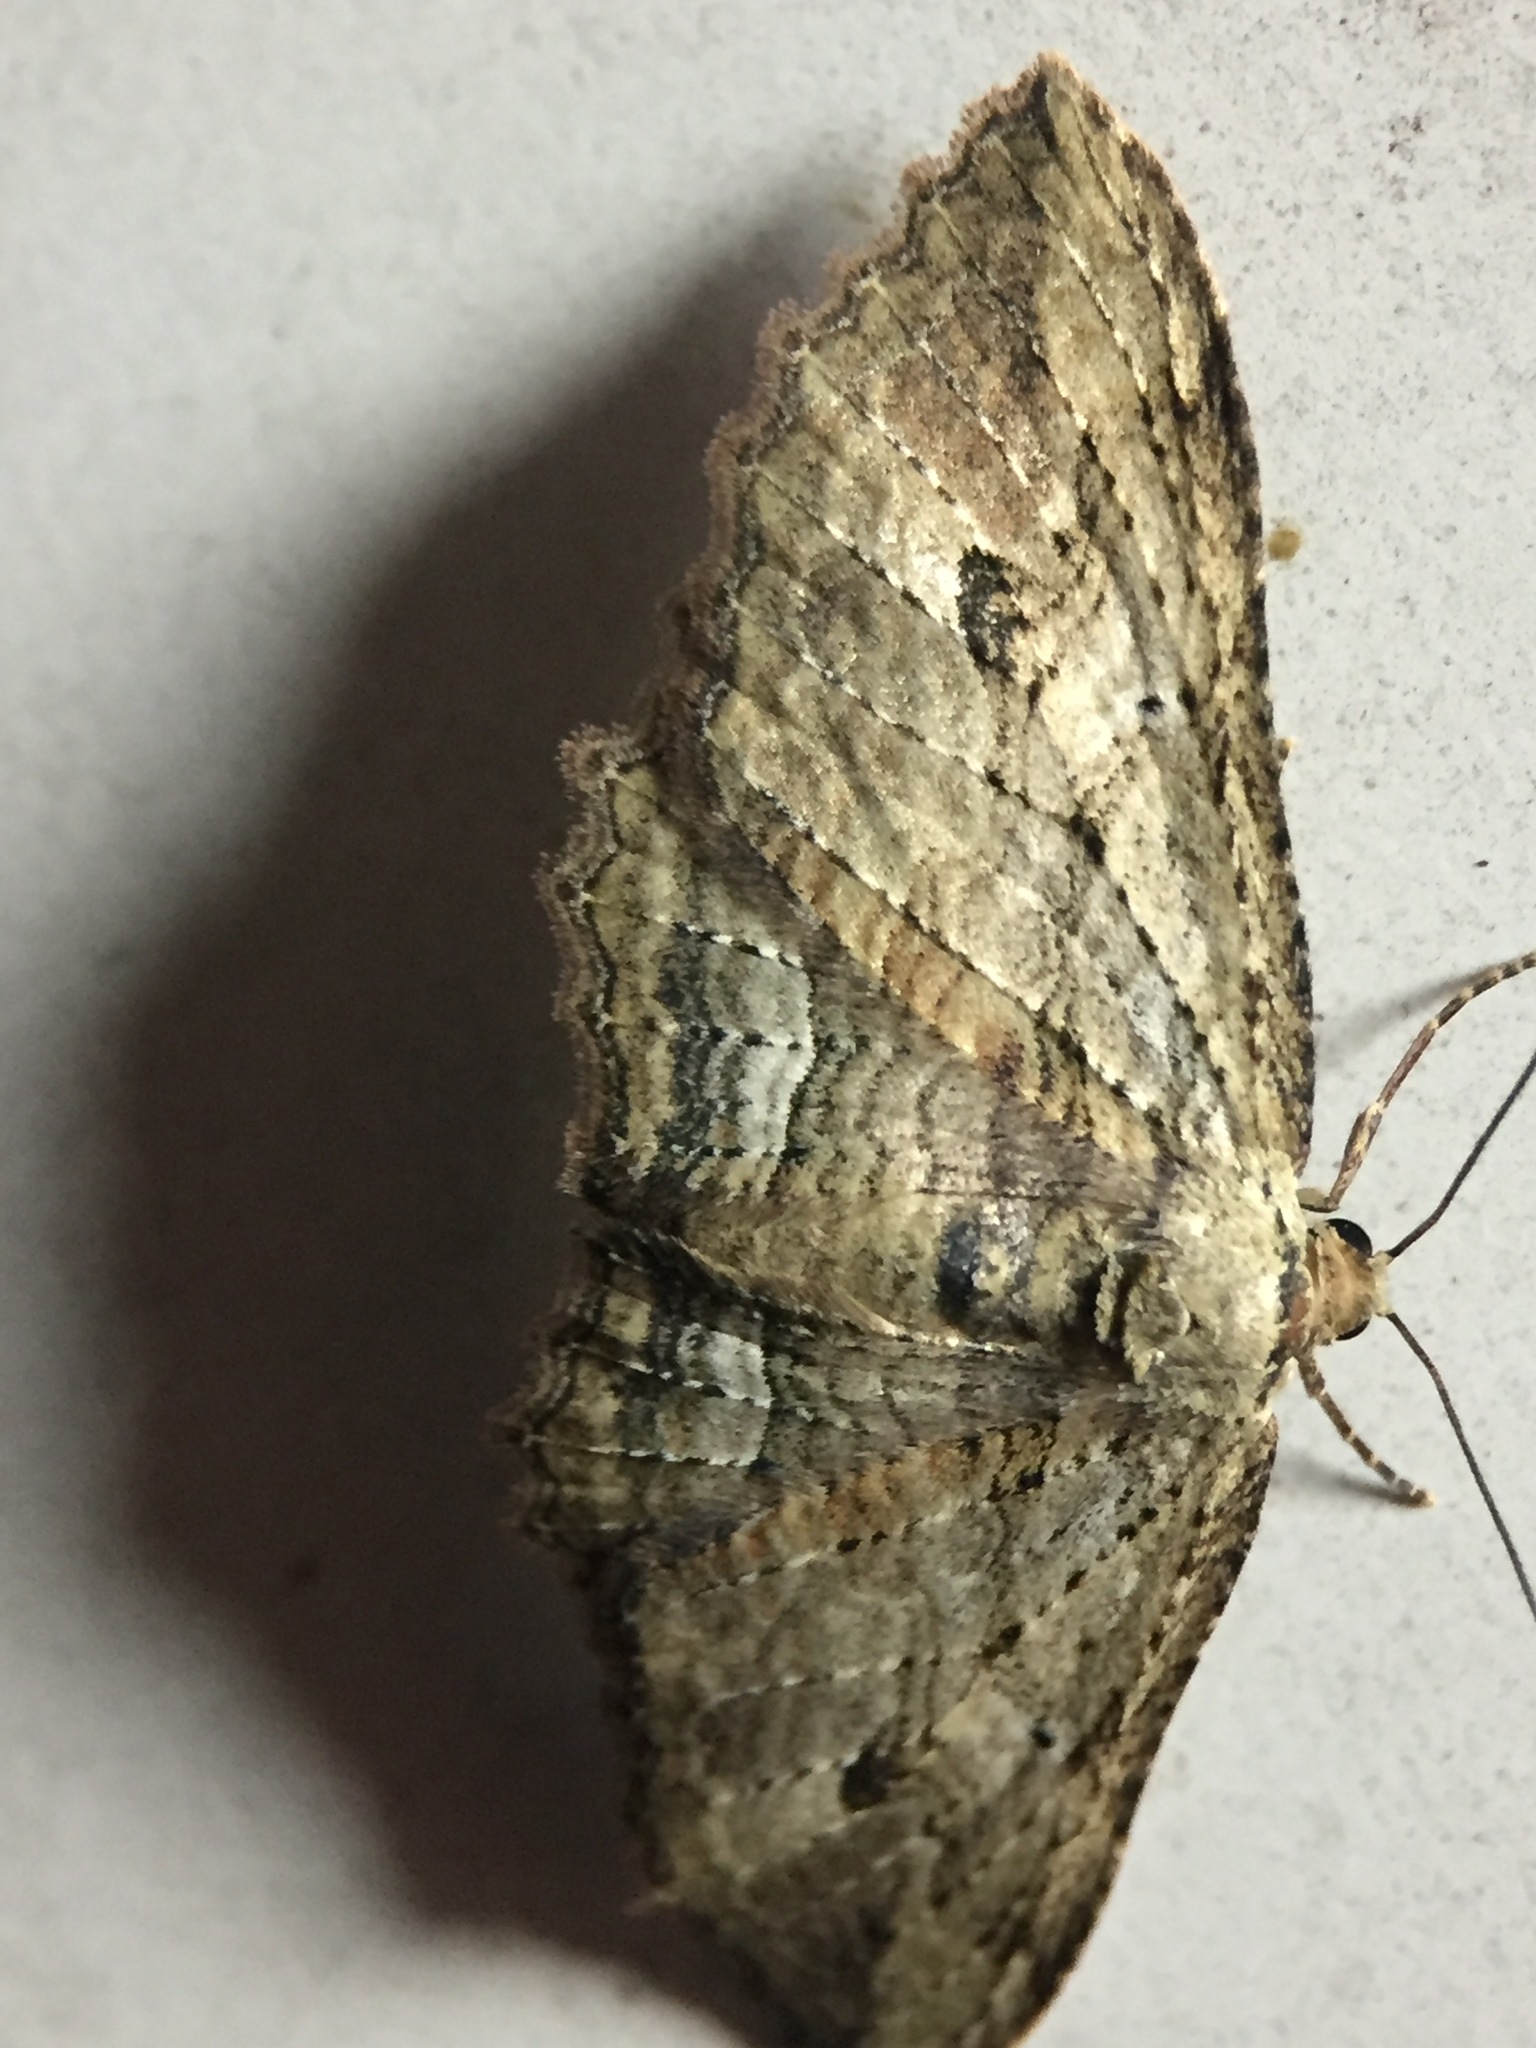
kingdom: Animalia
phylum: Arthropoda
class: Insecta
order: Lepidoptera
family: Geometridae
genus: Austrocidaria
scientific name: Austrocidaria bipartita
